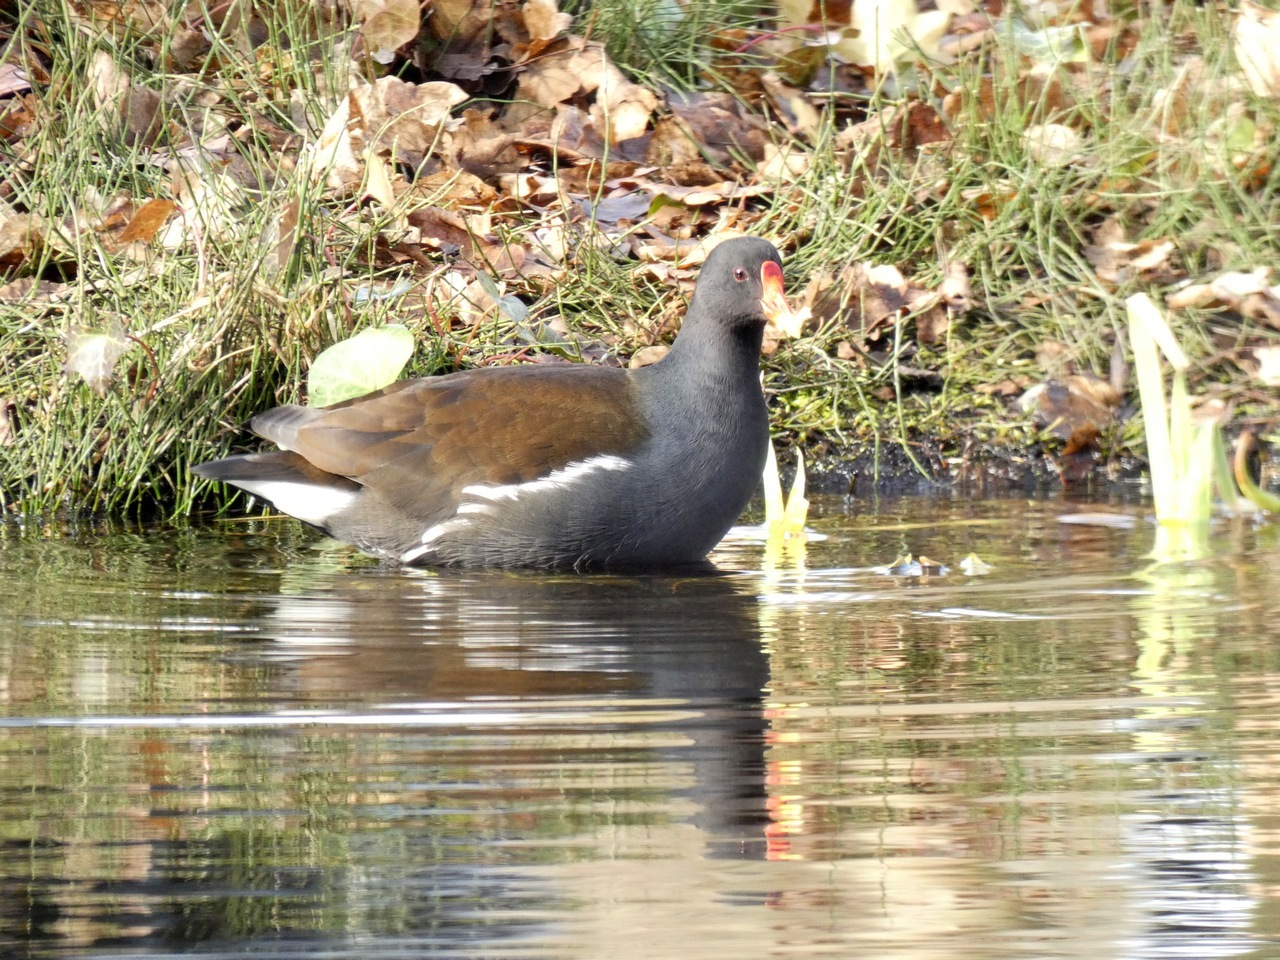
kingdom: Animalia
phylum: Chordata
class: Aves
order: Gruiformes
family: Rallidae
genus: Gallinula
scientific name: Gallinula chloropus
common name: Common moorhen
